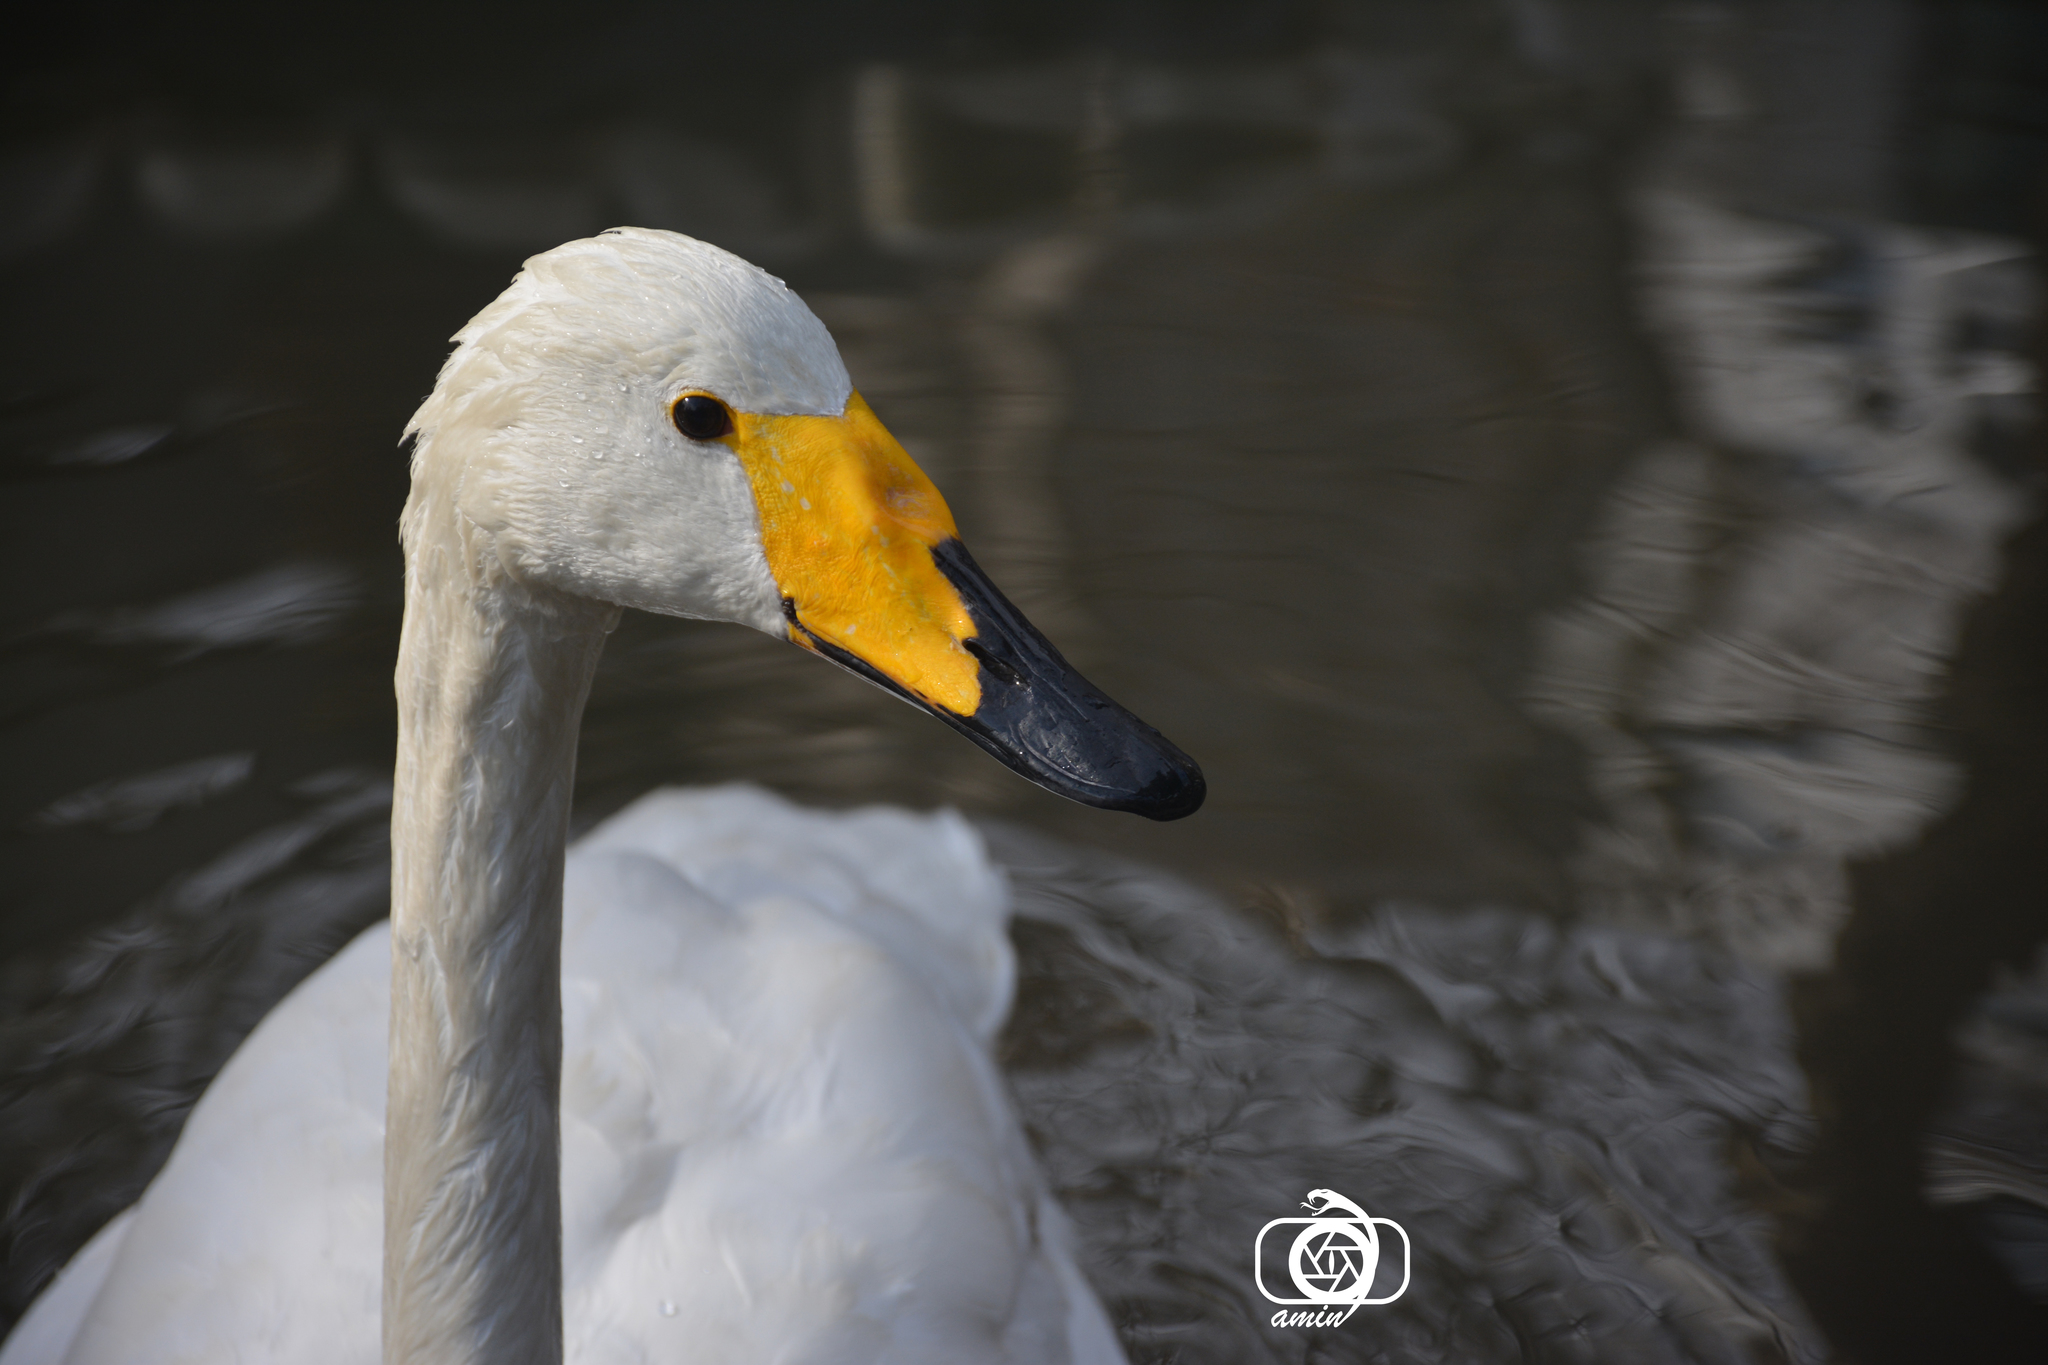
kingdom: Animalia
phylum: Chordata
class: Aves
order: Anseriformes
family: Anatidae
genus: Cygnus
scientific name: Cygnus cygnus
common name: Whooper swan
